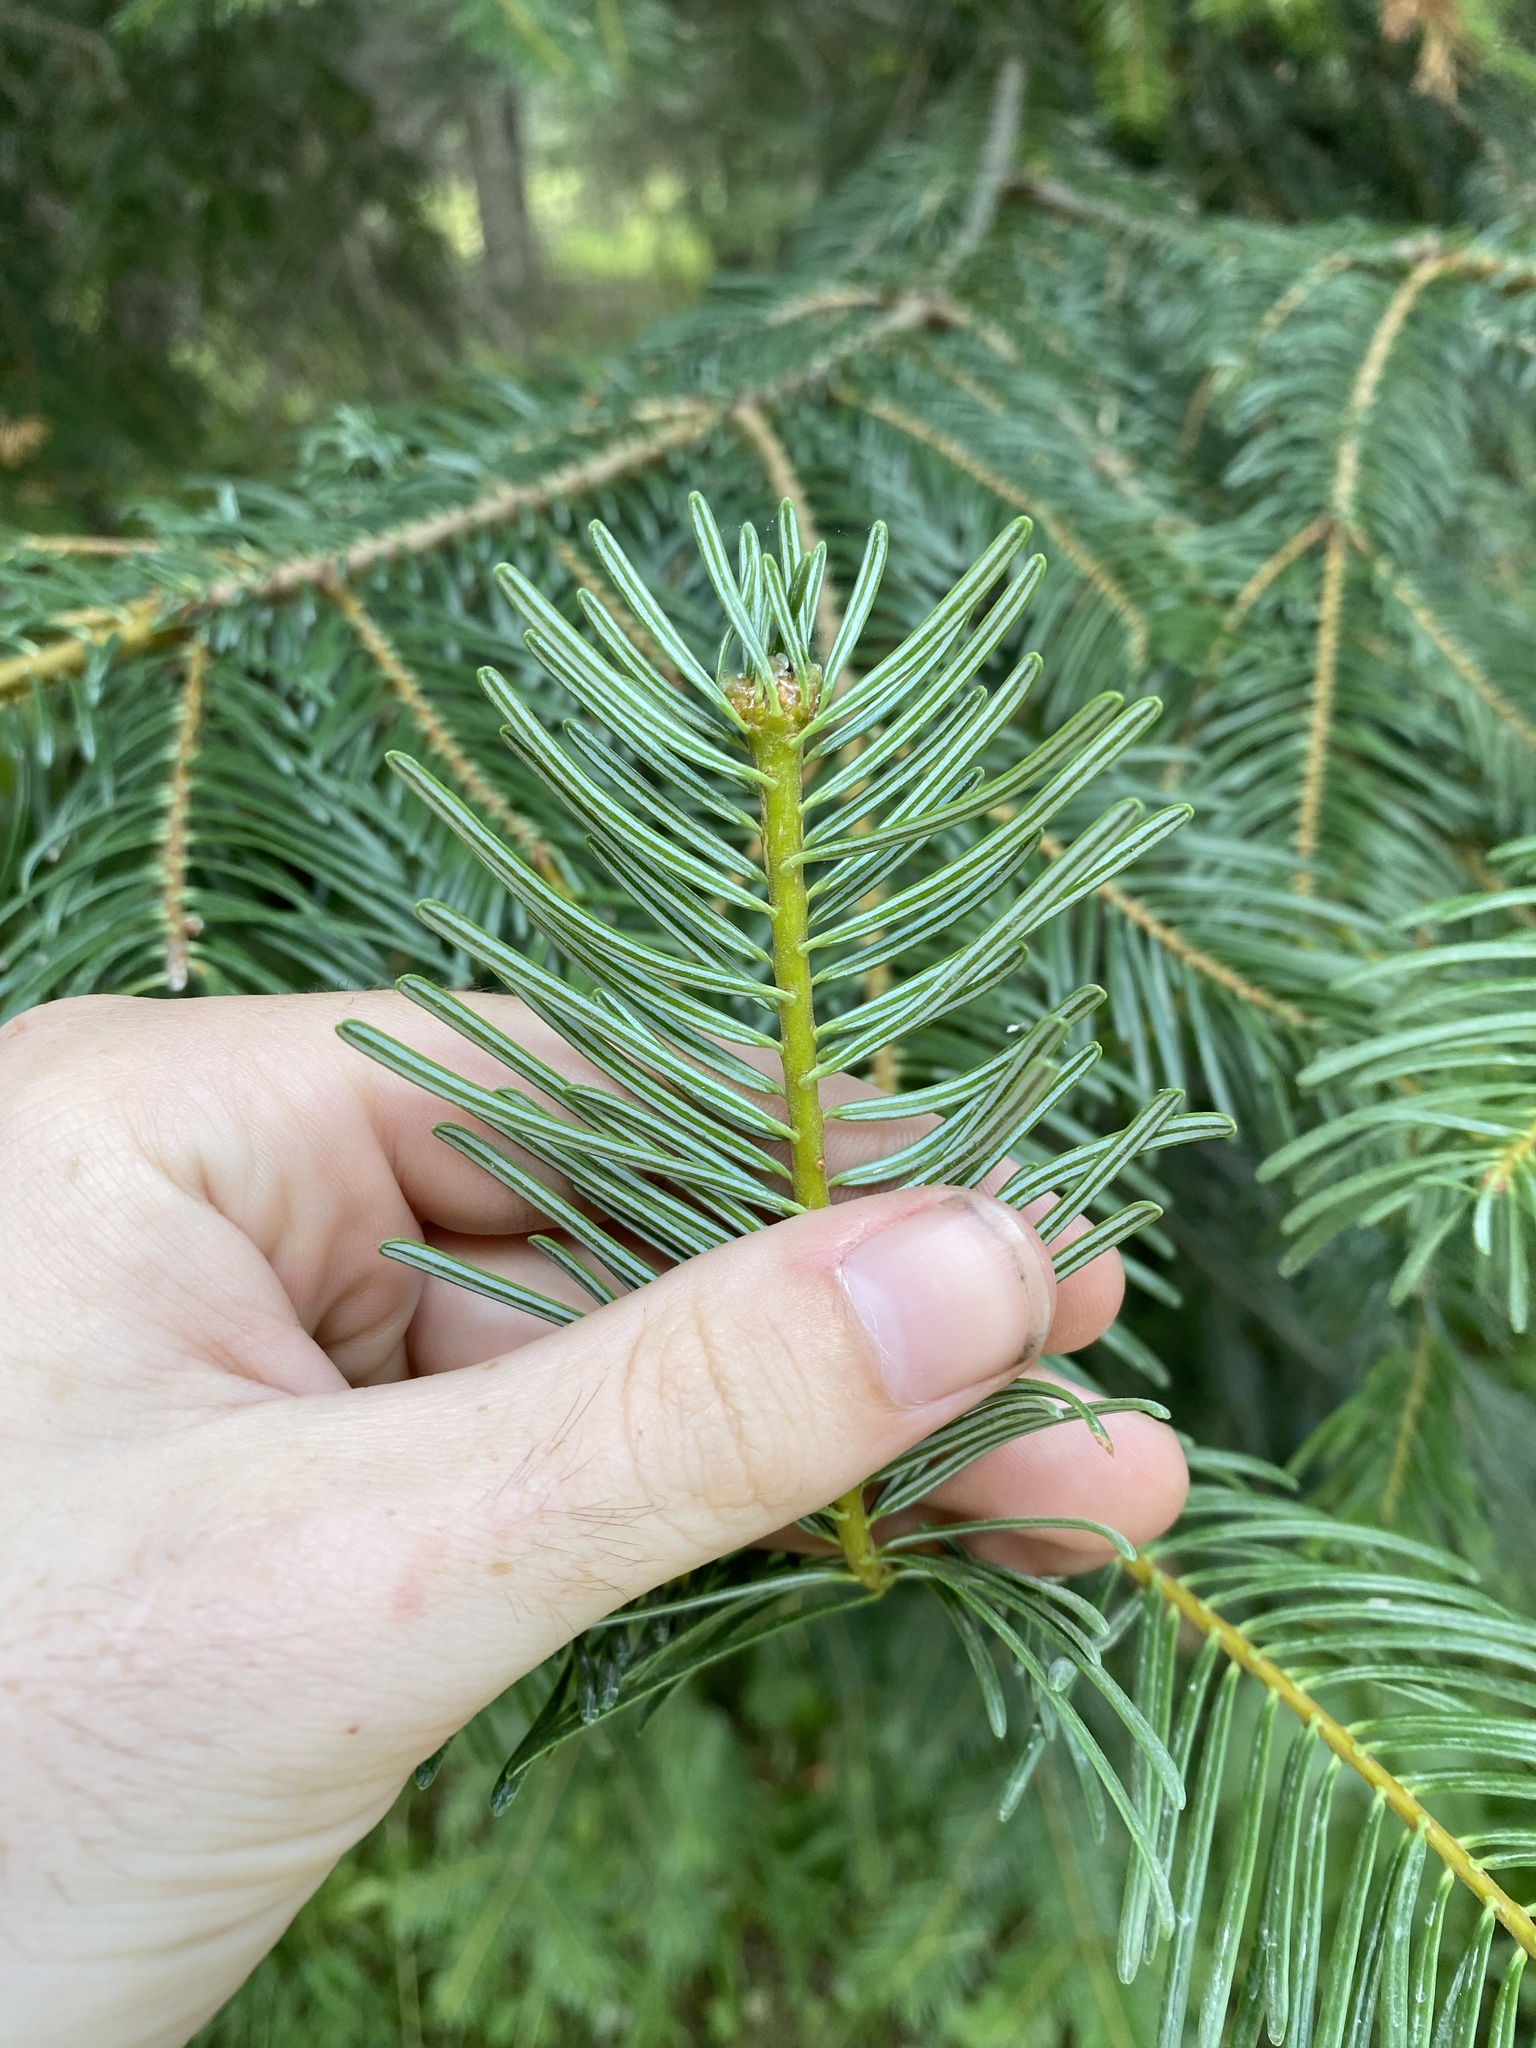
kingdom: Plantae
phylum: Tracheophyta
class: Pinopsida
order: Pinales
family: Pinaceae
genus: Abies
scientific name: Abies grandis
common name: Giant fir
